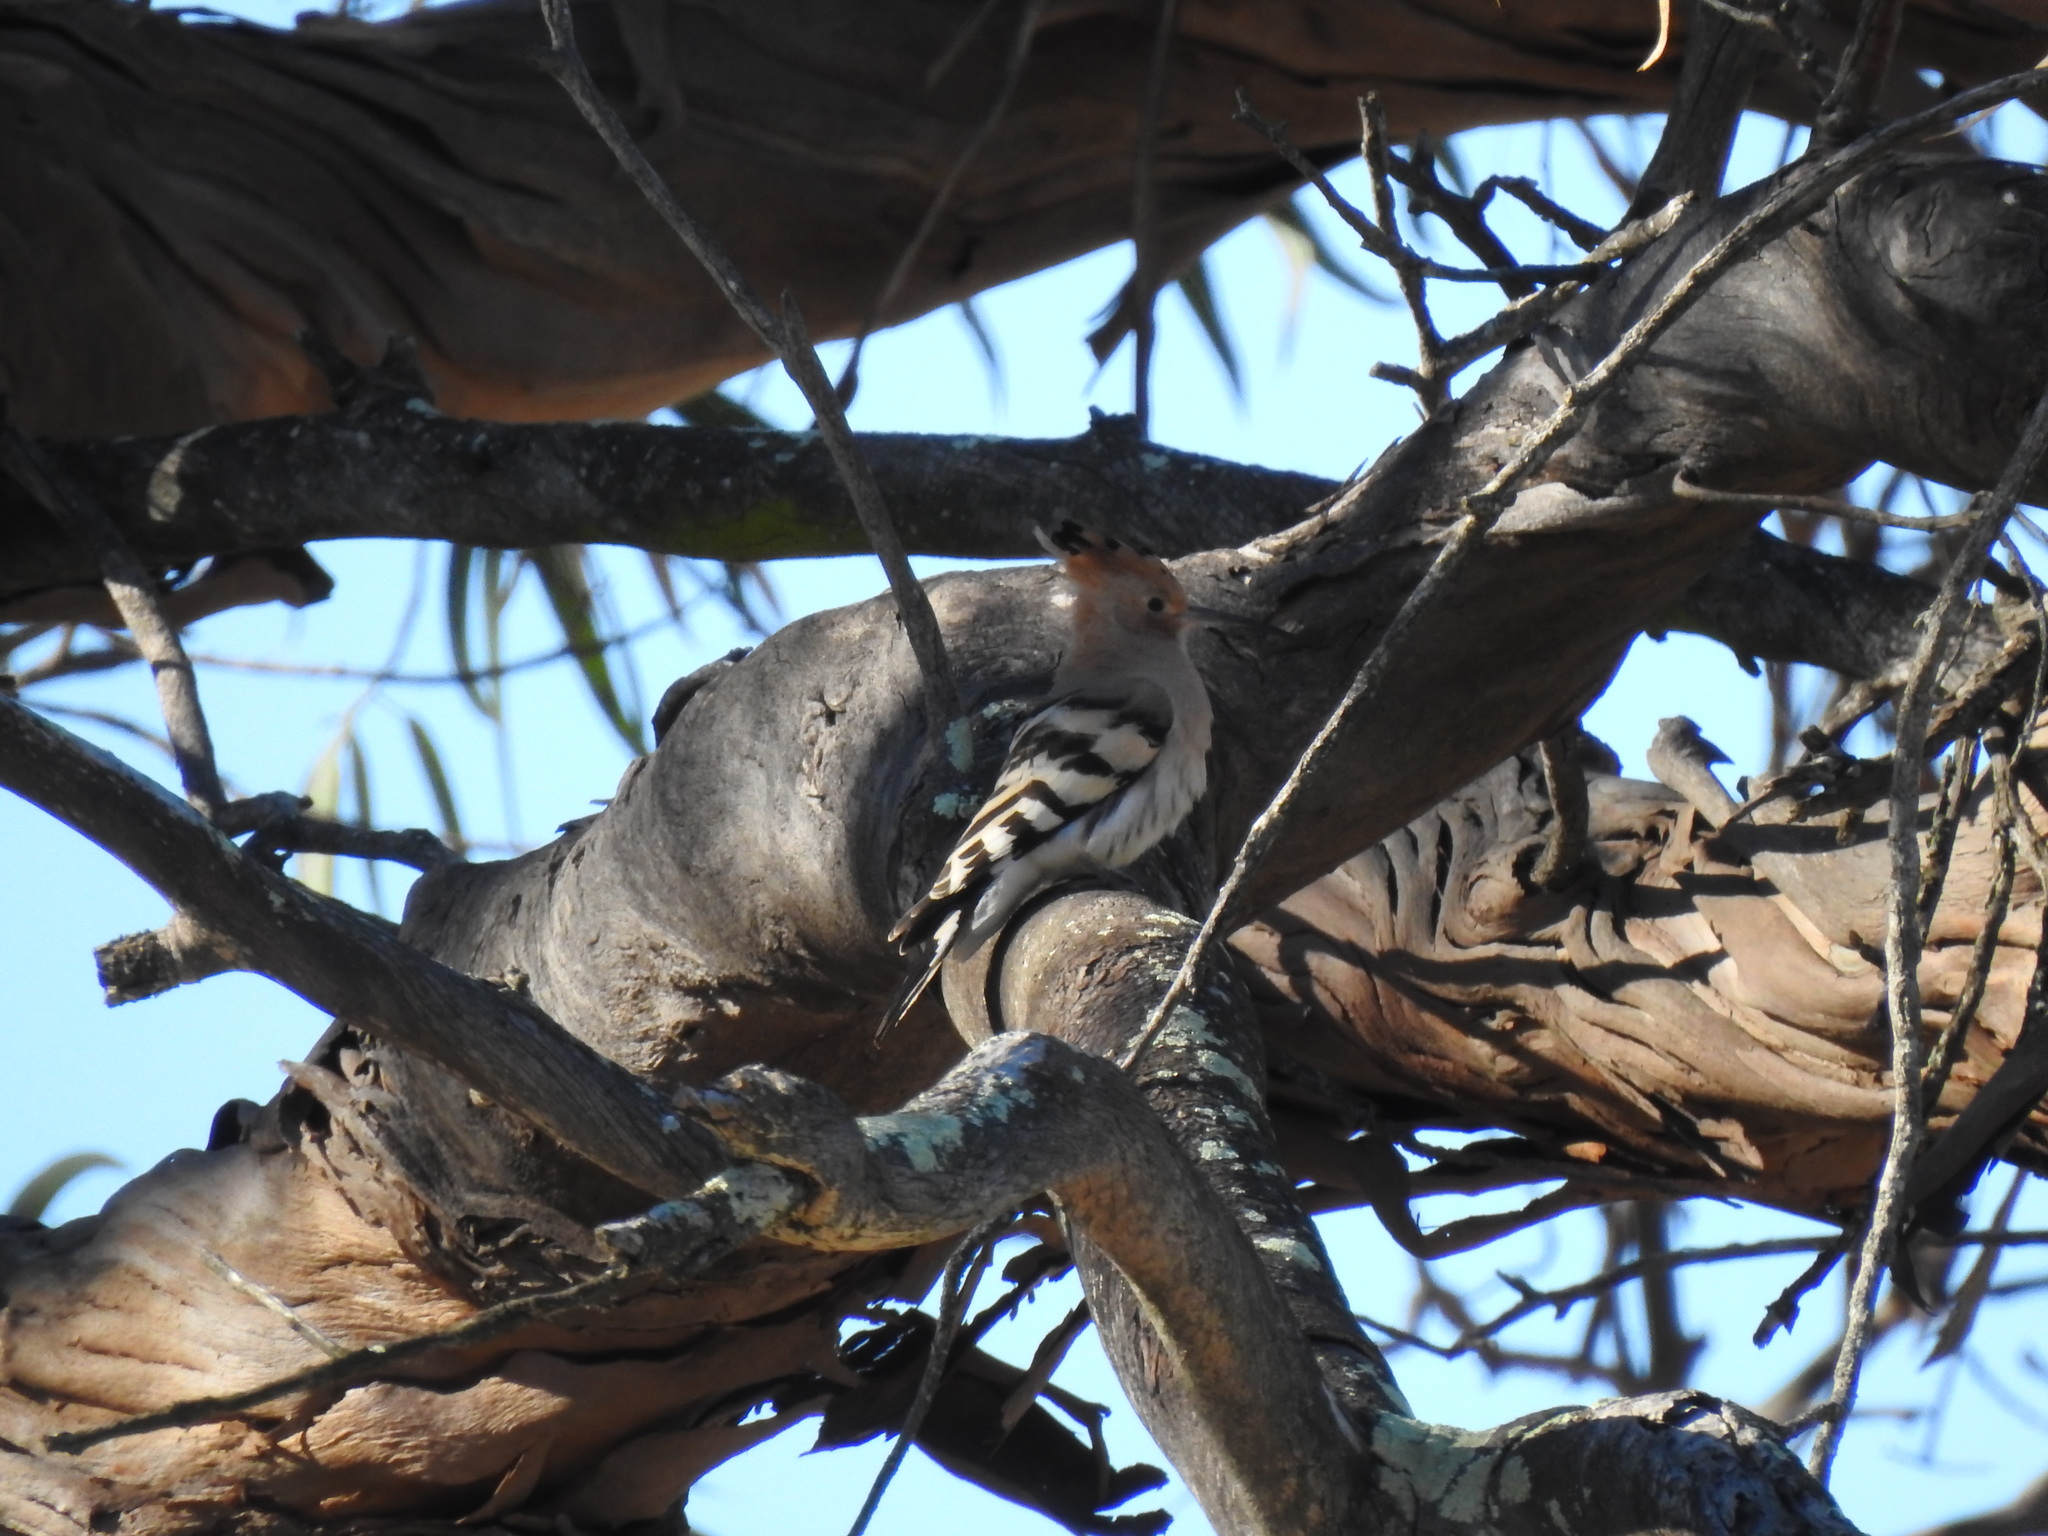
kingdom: Animalia
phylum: Chordata
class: Aves
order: Bucerotiformes
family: Upupidae
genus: Upupa
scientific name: Upupa epops
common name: Eurasian hoopoe
